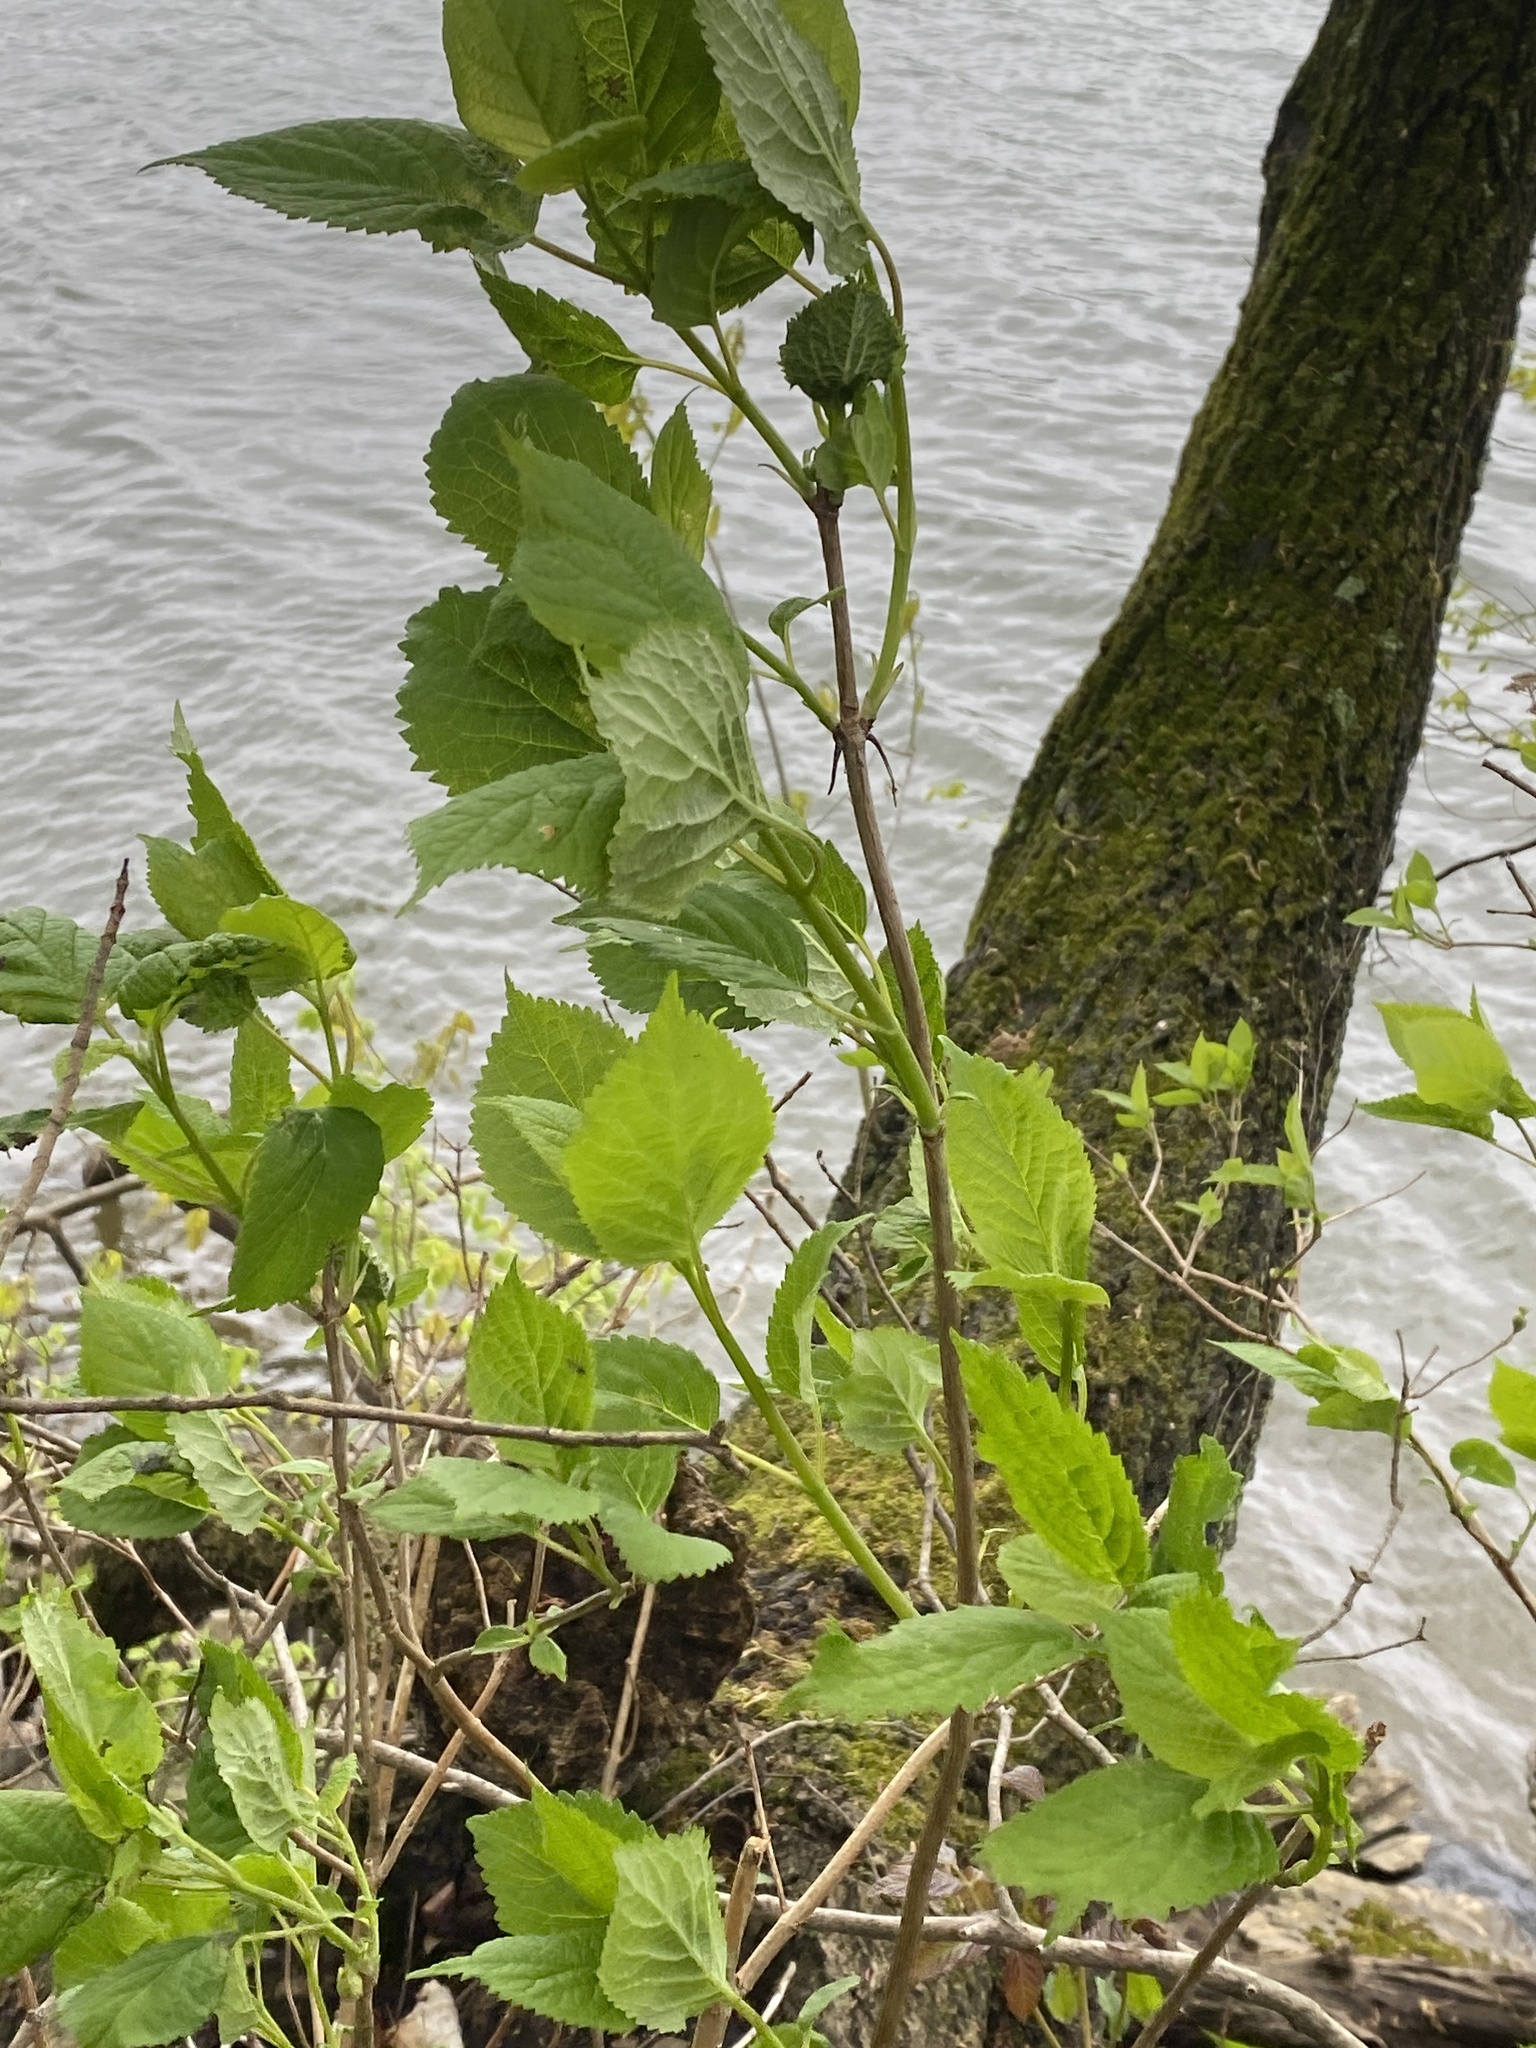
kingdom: Plantae
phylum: Tracheophyta
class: Magnoliopsida
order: Cornales
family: Hydrangeaceae
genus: Hydrangea
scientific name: Hydrangea arborescens
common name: Sevenbark
